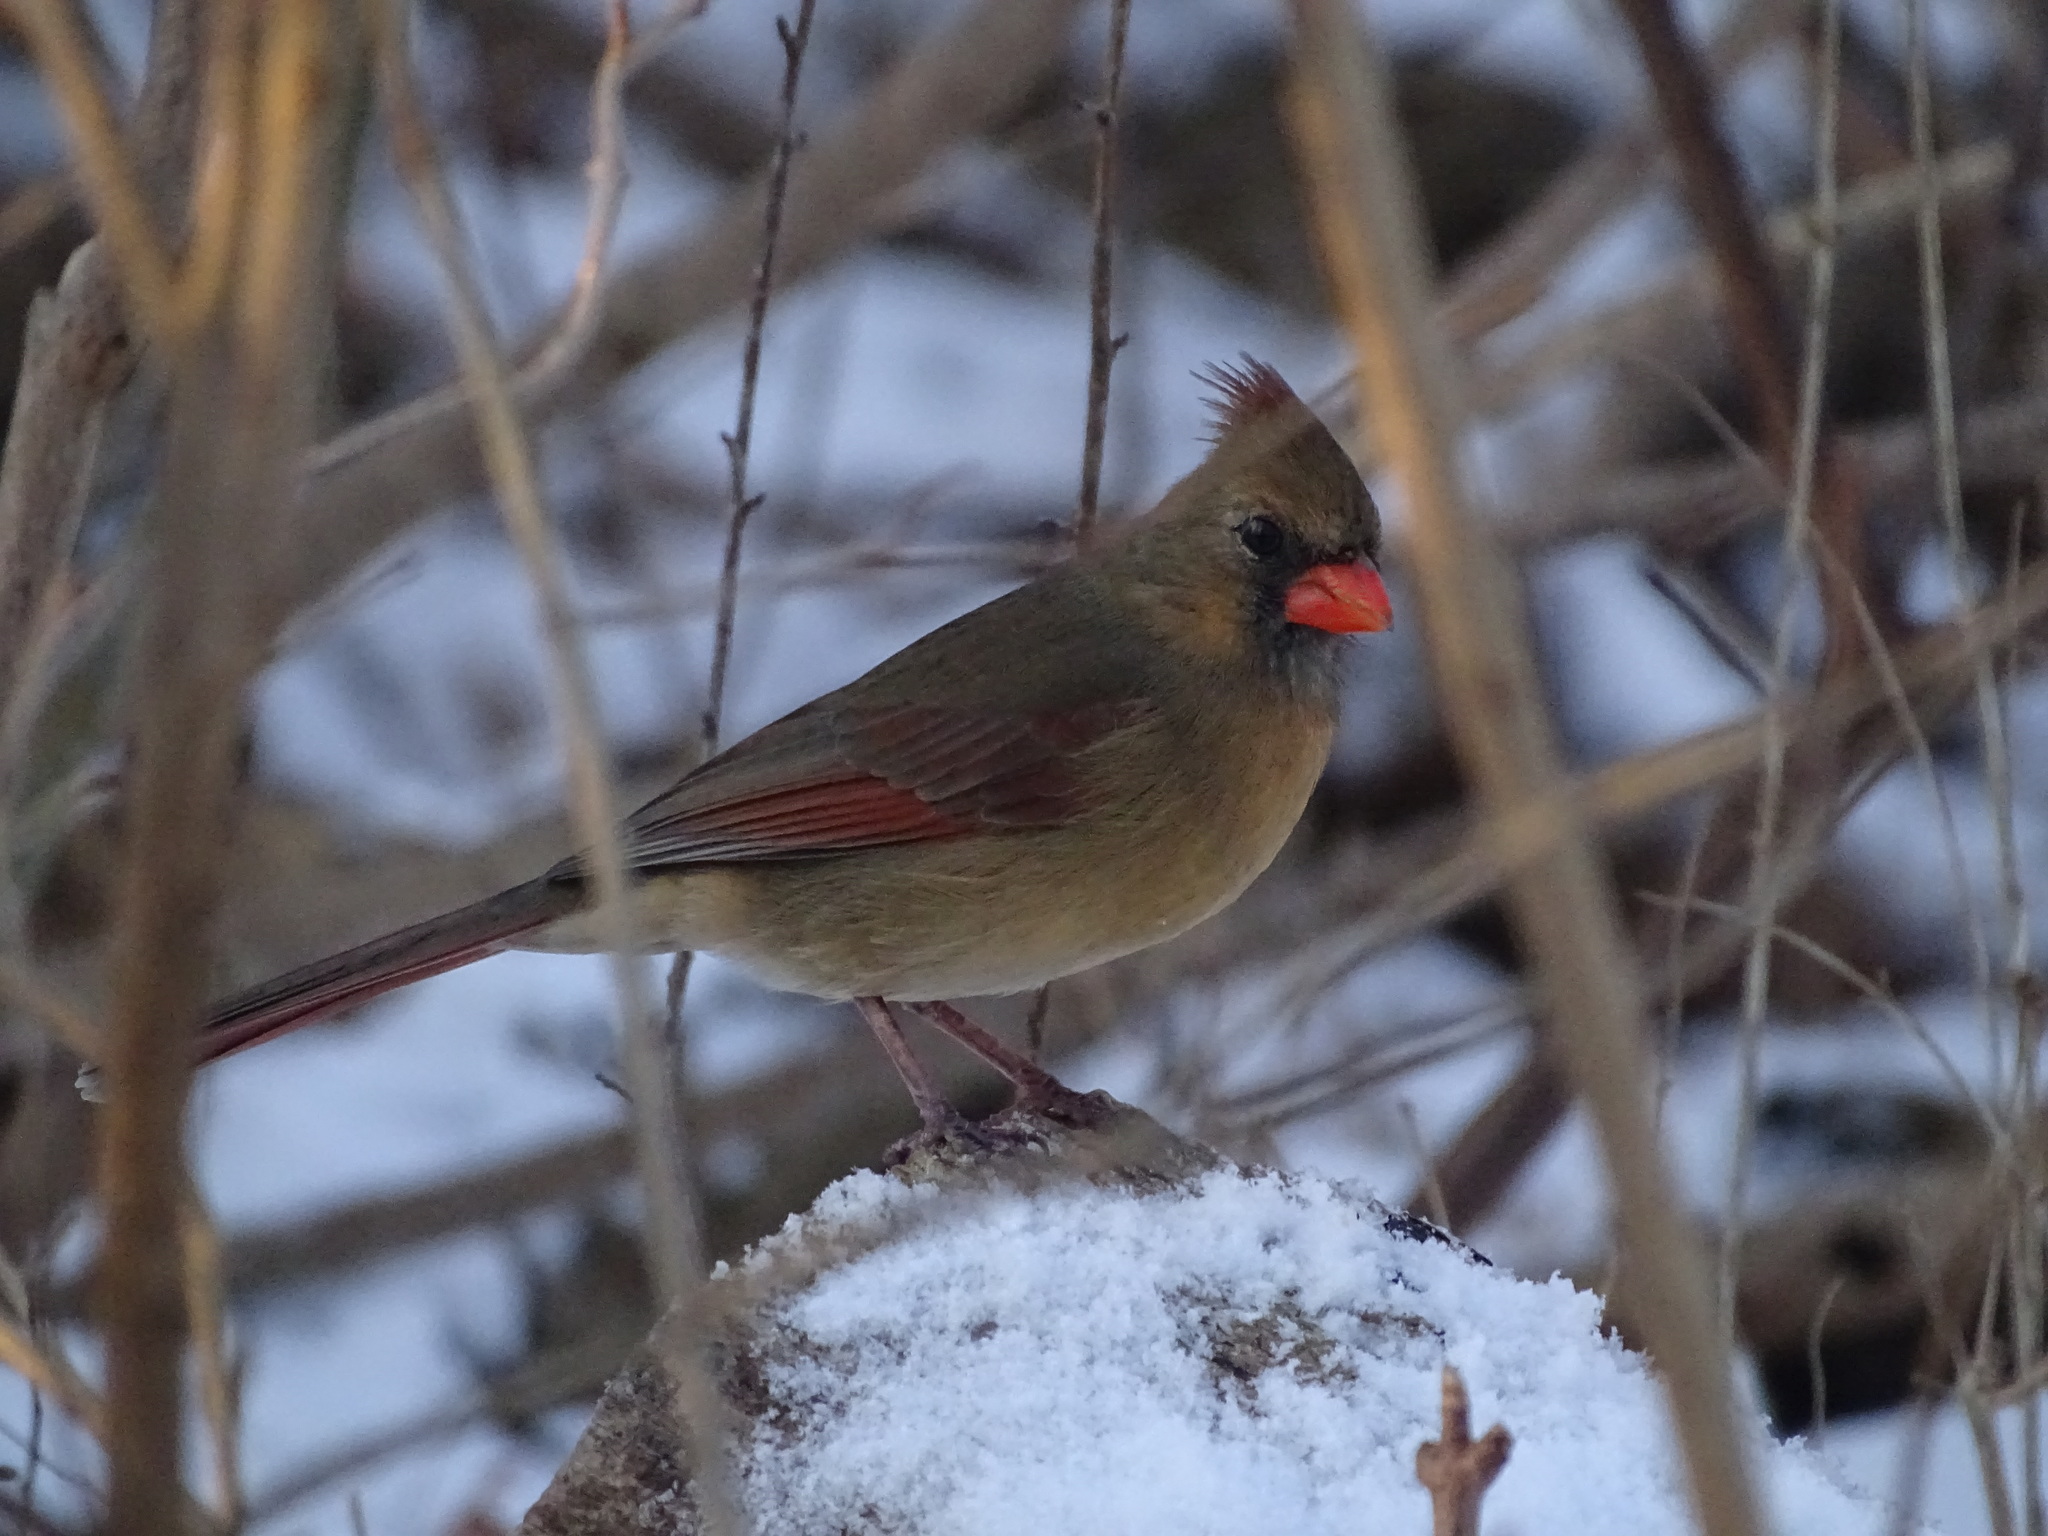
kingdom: Animalia
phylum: Chordata
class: Aves
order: Passeriformes
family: Cardinalidae
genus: Cardinalis
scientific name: Cardinalis cardinalis
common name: Northern cardinal
